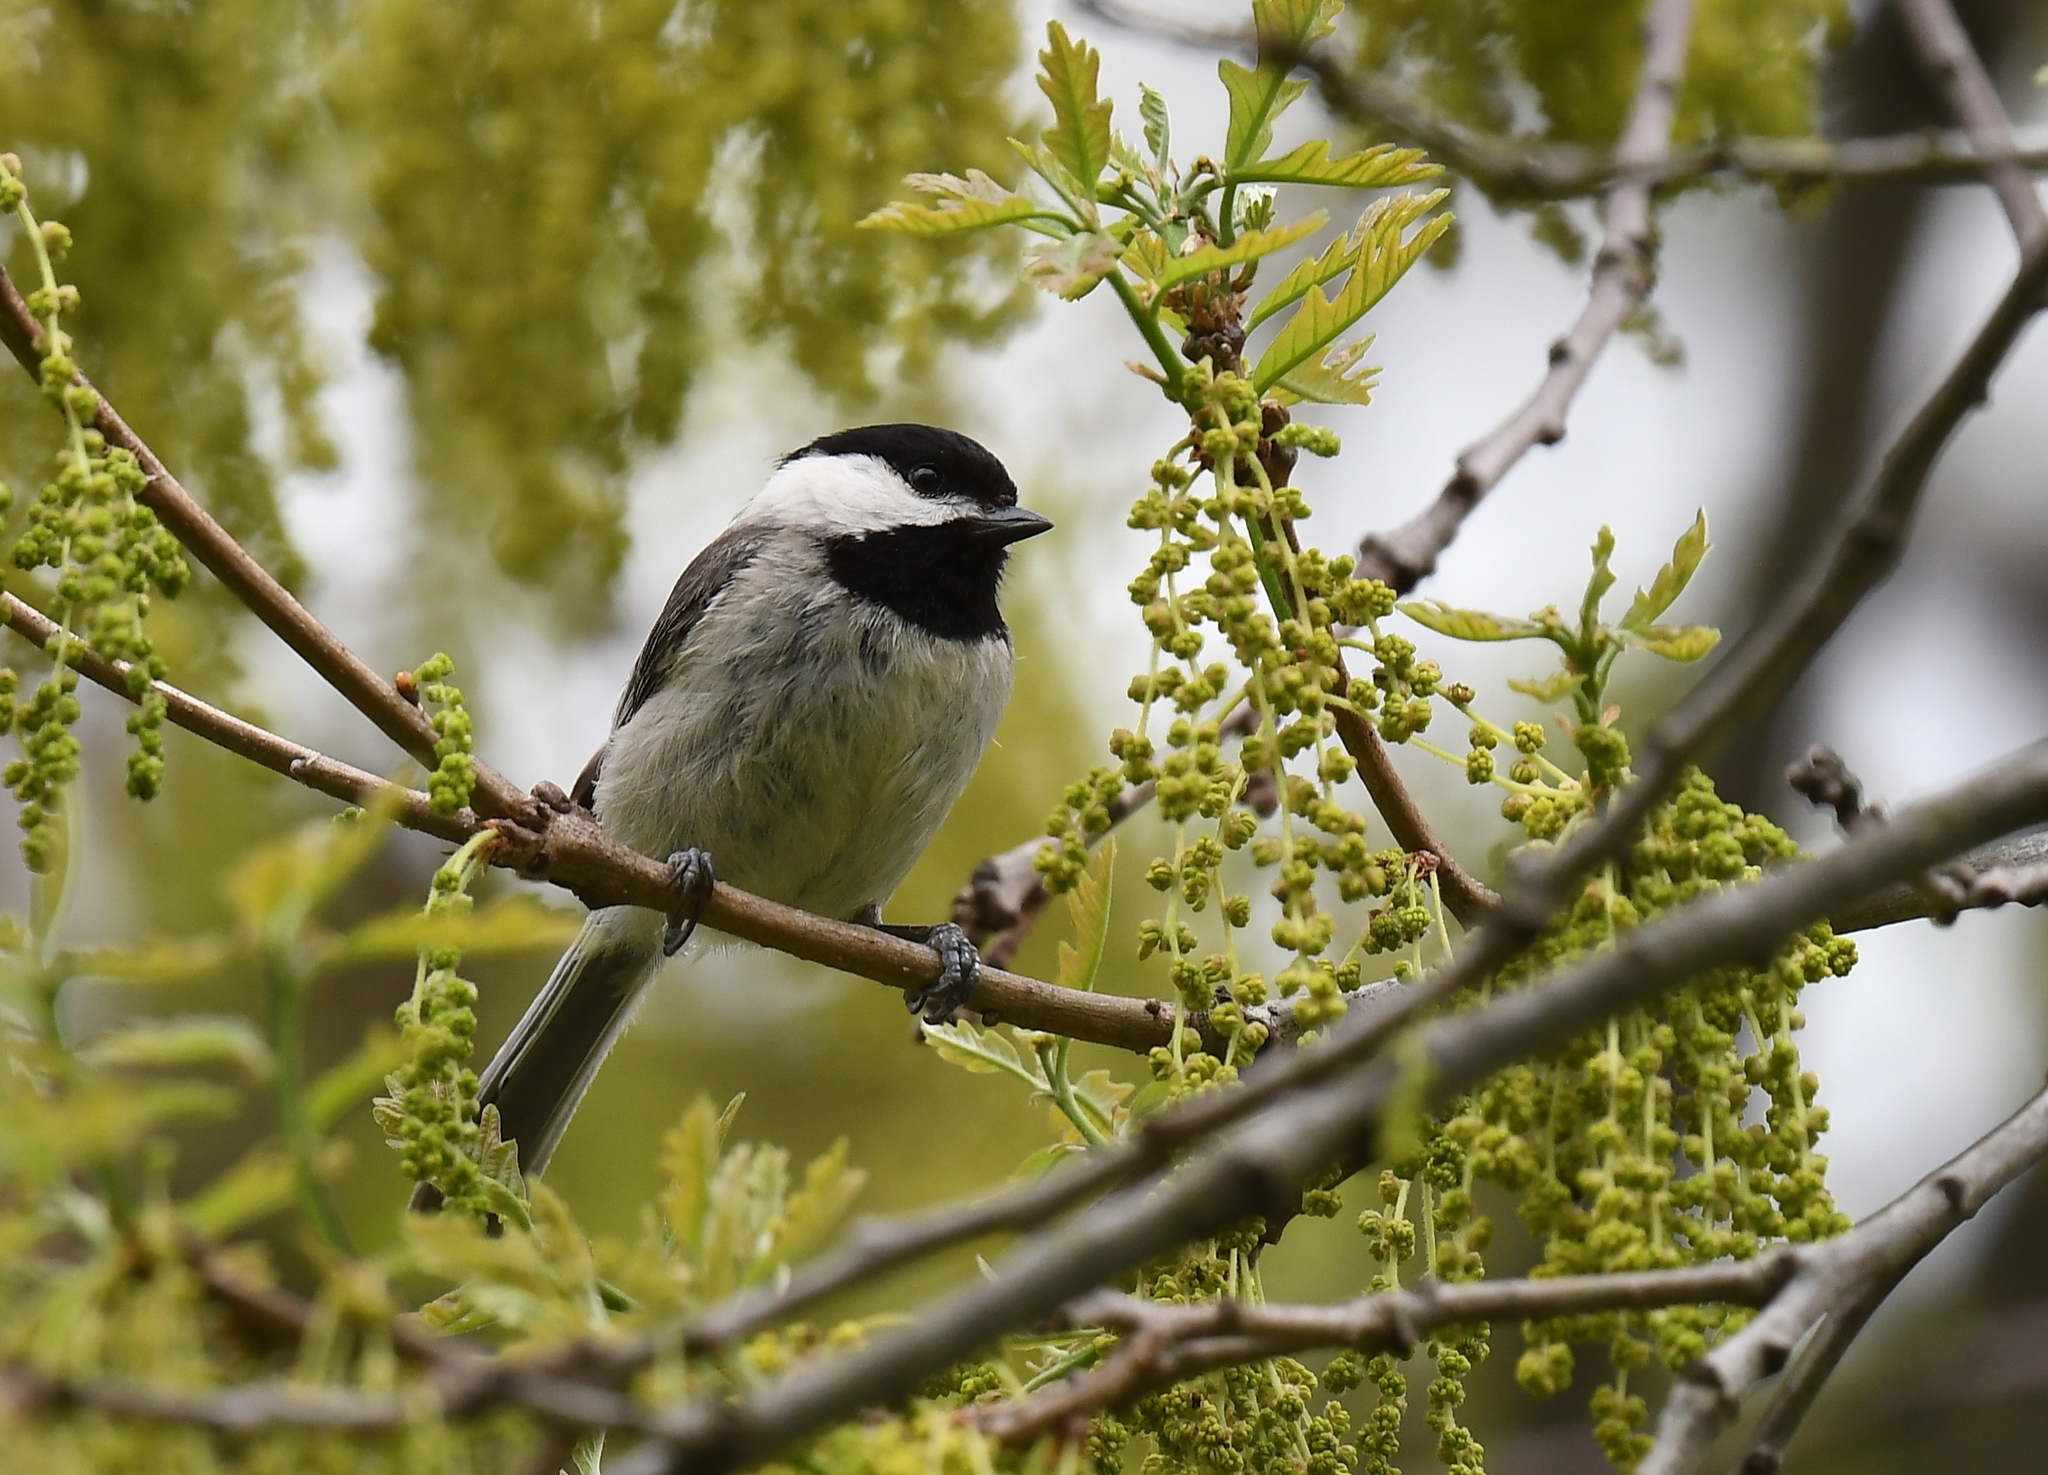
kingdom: Animalia
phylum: Chordata
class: Aves
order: Passeriformes
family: Paridae
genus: Poecile
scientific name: Poecile
